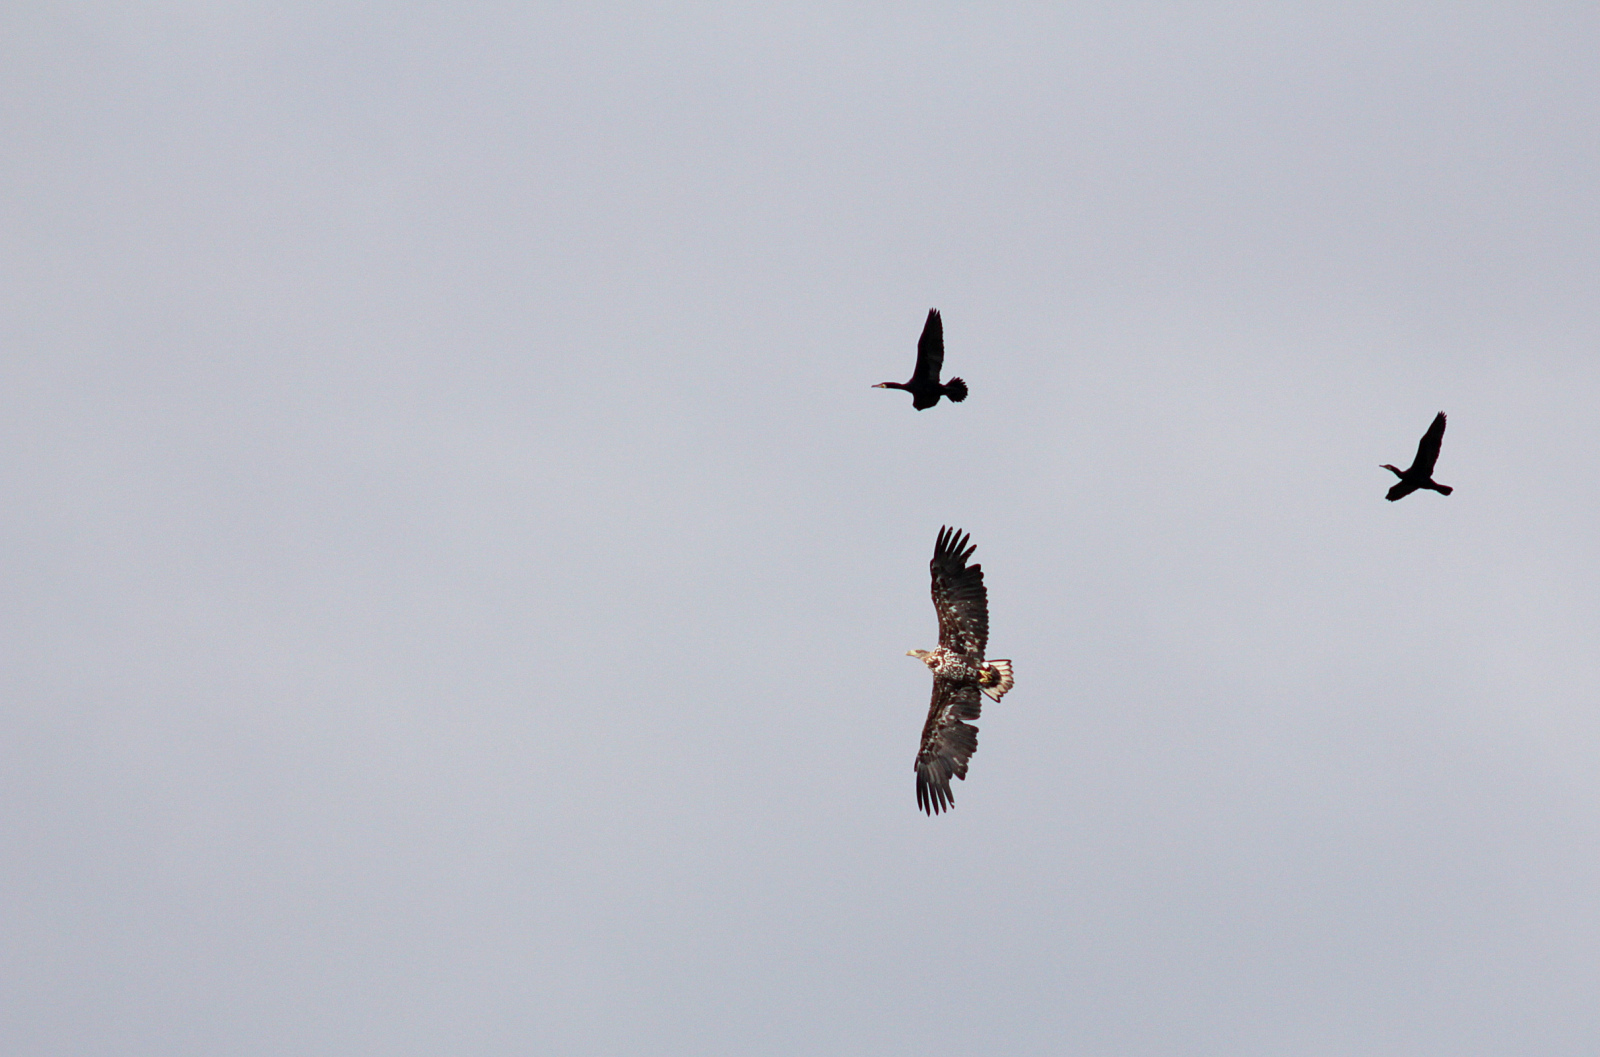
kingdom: Animalia
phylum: Chordata
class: Aves
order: Accipitriformes
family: Accipitridae
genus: Haliaeetus
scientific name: Haliaeetus albicilla
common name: White-tailed eagle
